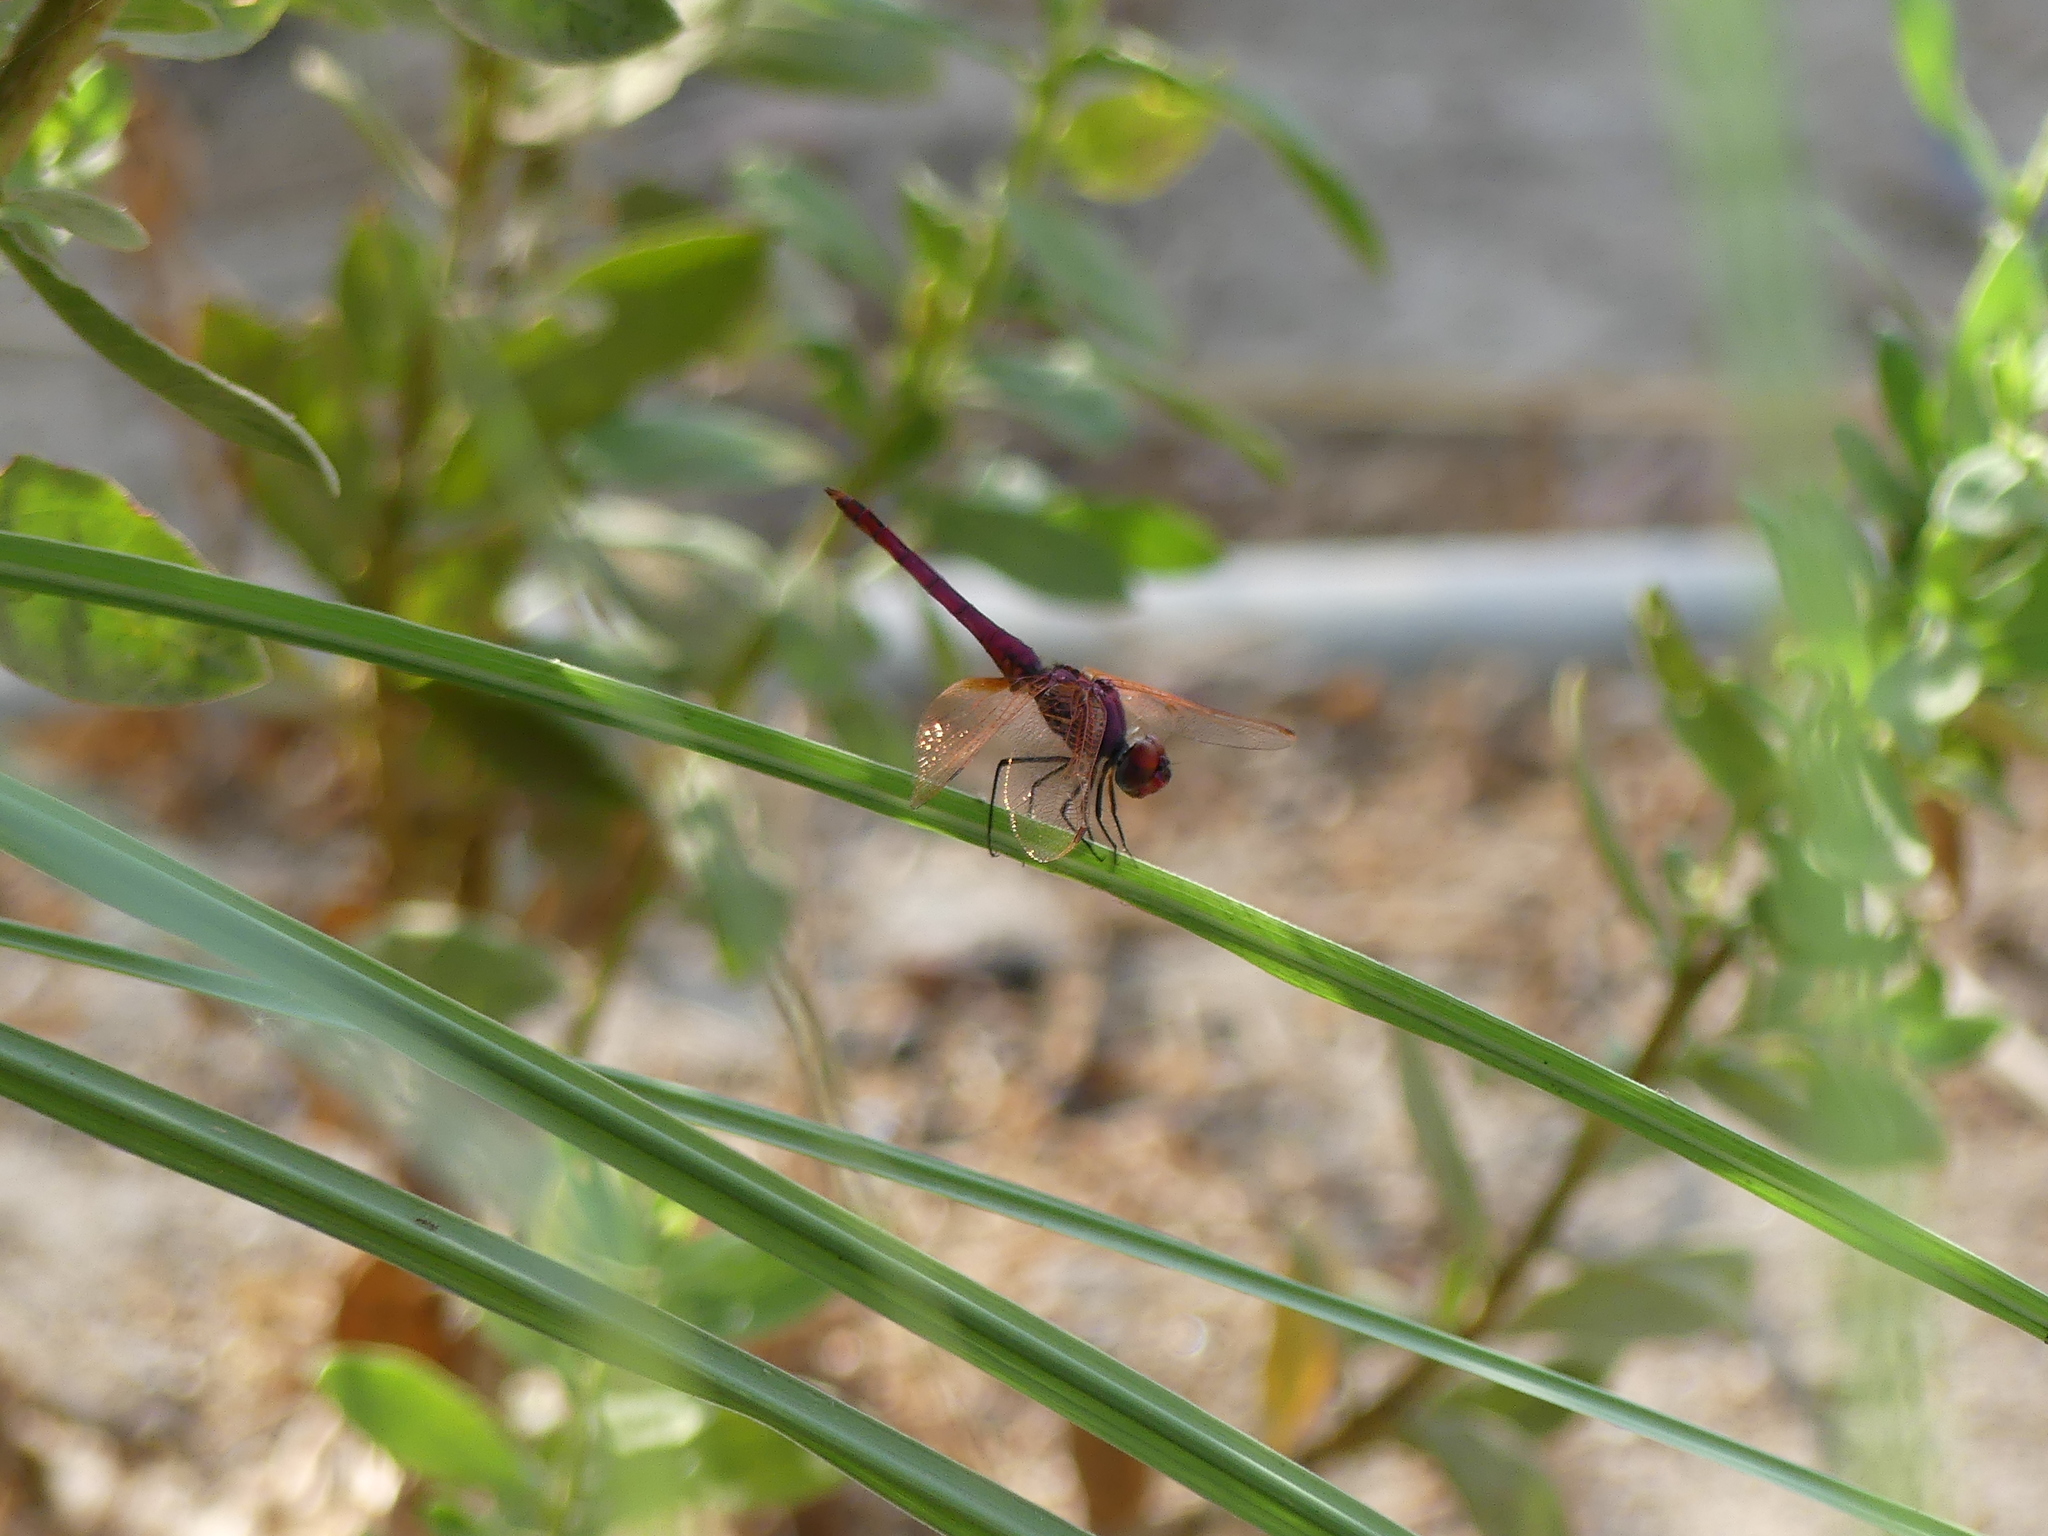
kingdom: Animalia
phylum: Arthropoda
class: Insecta
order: Odonata
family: Libellulidae
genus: Trithemis
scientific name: Trithemis annulata
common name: Violet dropwing
